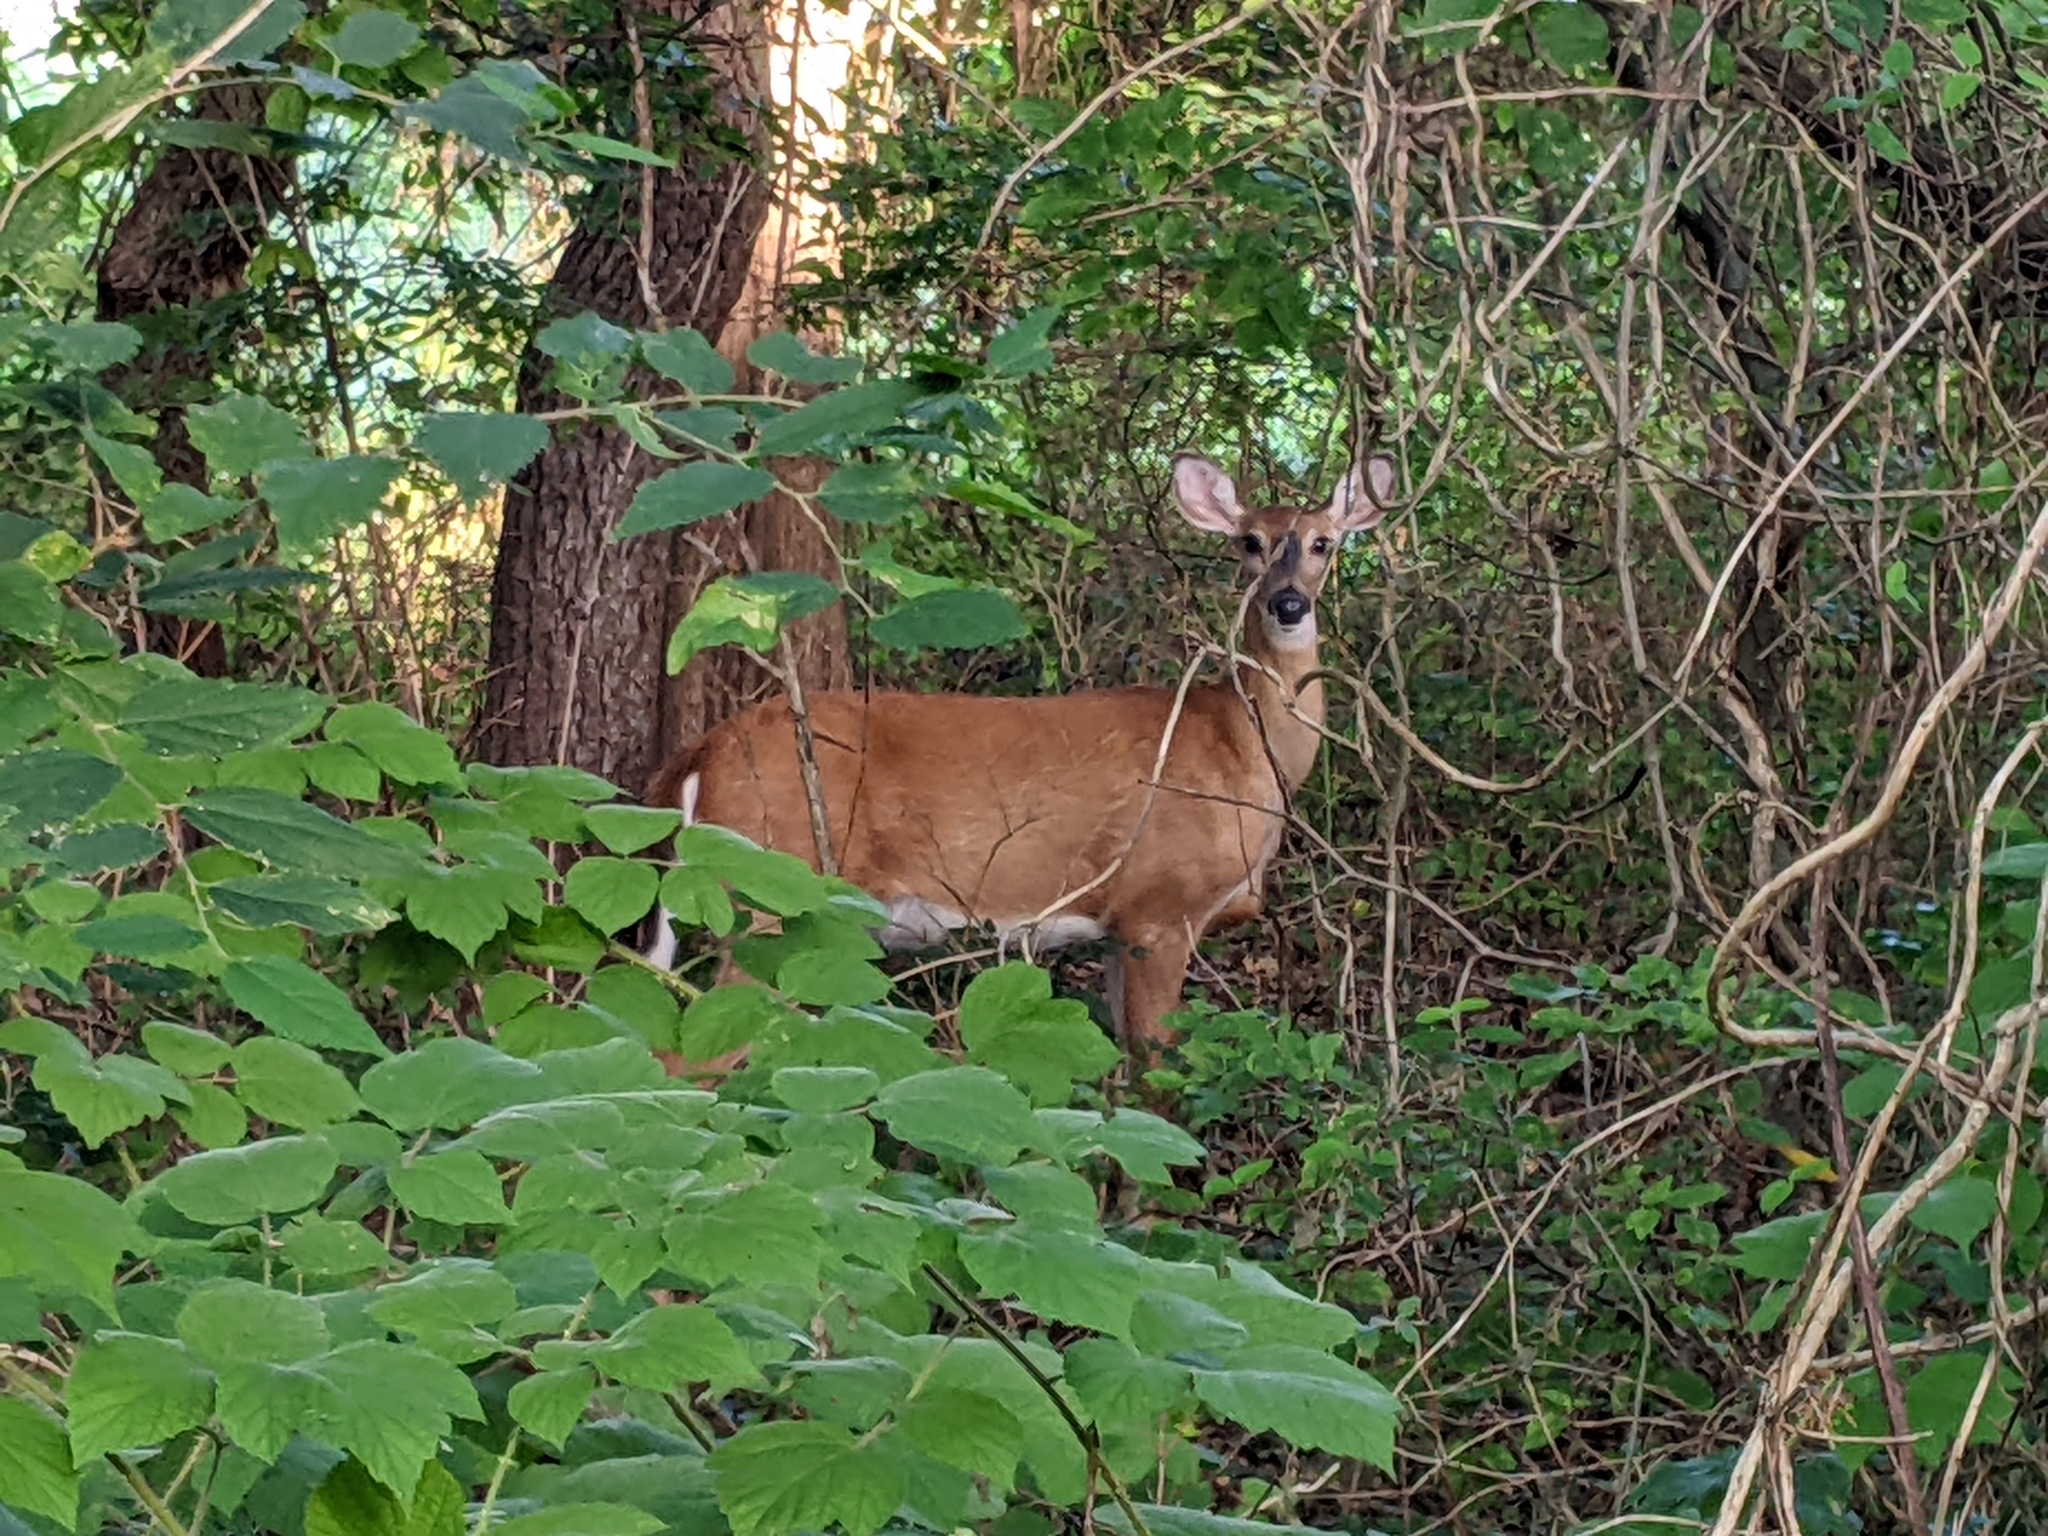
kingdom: Animalia
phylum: Chordata
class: Mammalia
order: Artiodactyla
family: Cervidae
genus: Odocoileus
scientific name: Odocoileus virginianus
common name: White-tailed deer
